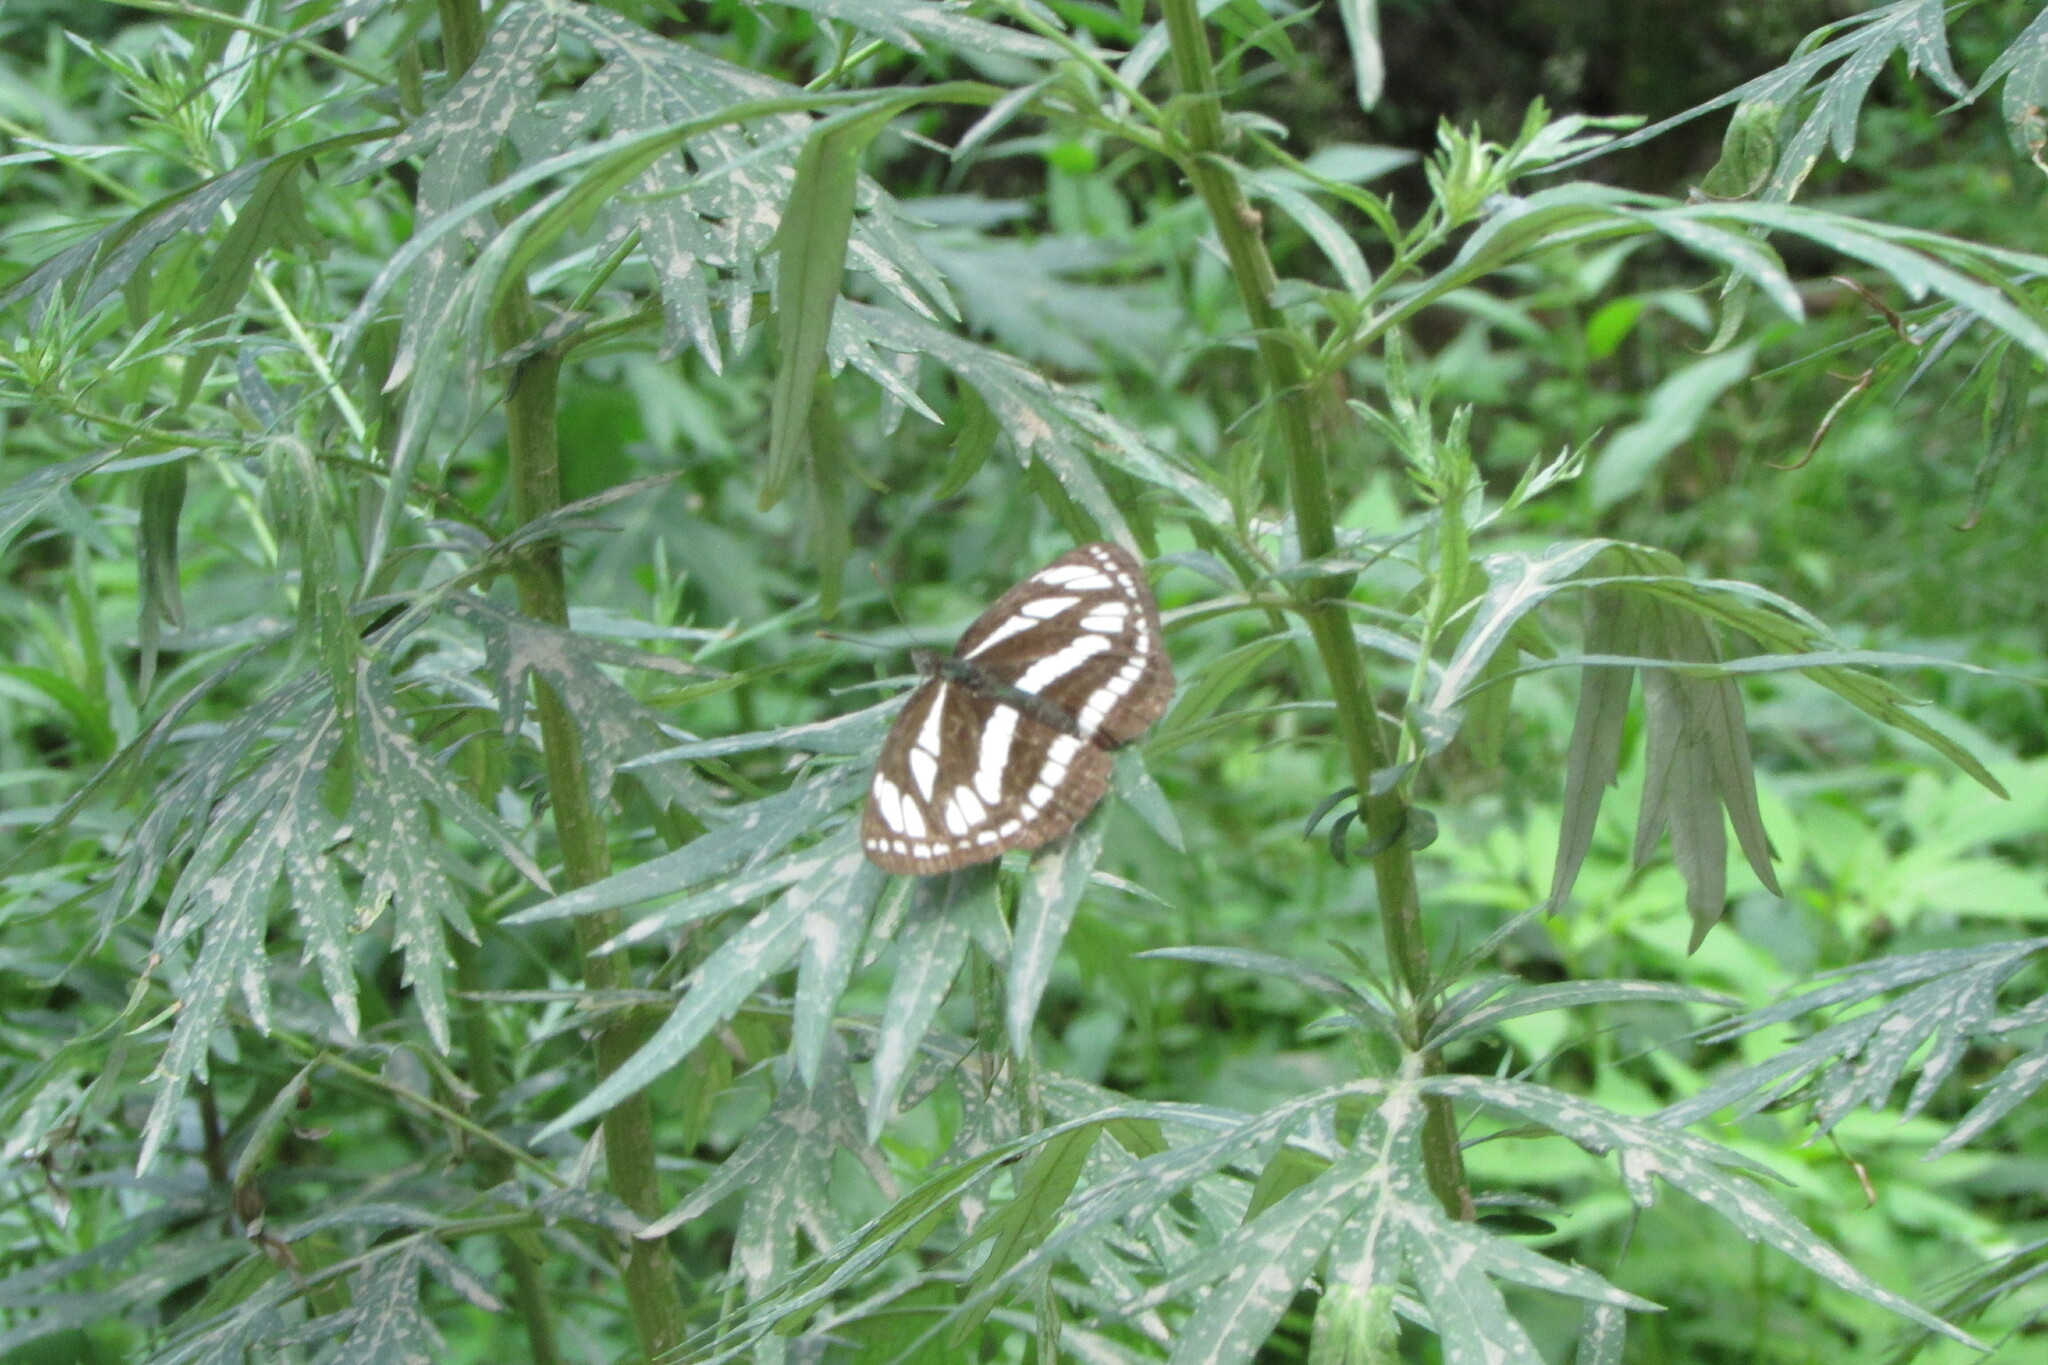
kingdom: Animalia
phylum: Arthropoda
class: Insecta
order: Lepidoptera
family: Nymphalidae
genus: Neptis
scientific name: Neptis sappho
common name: Common glider
